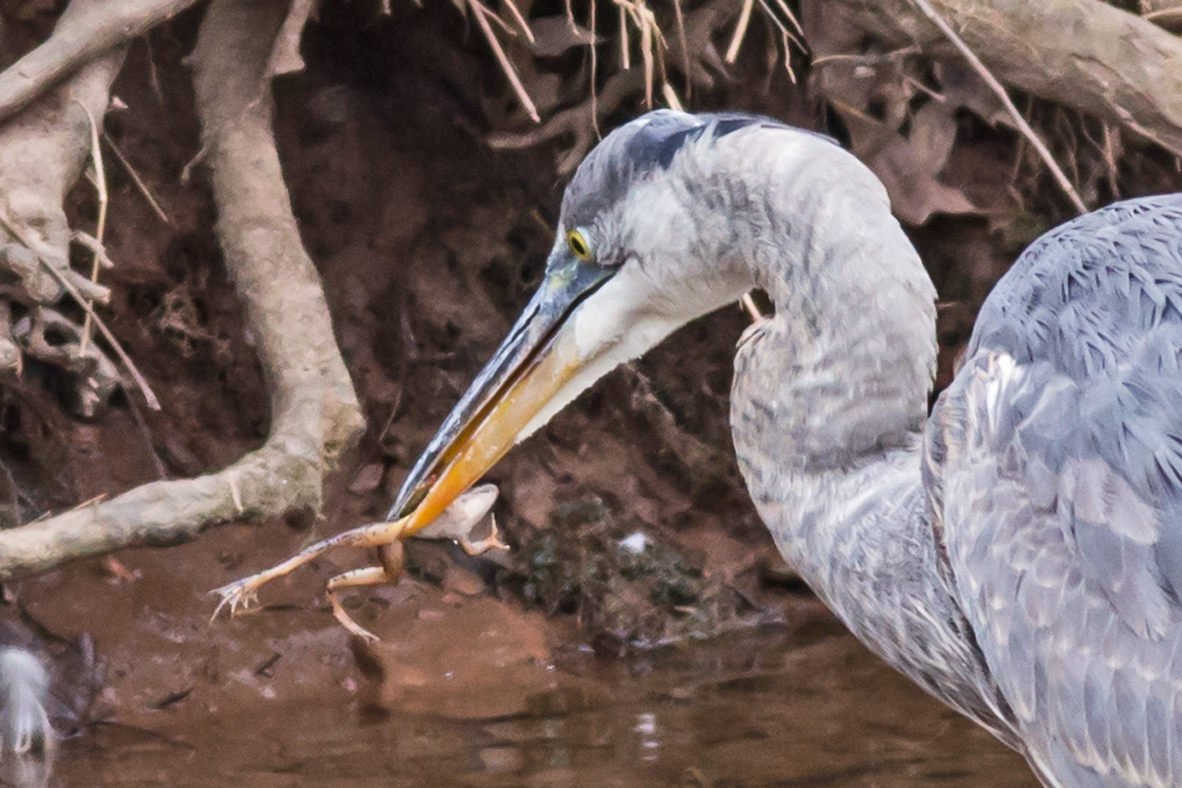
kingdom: Animalia
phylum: Chordata
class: Amphibia
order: Anura
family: Ranidae
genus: Lithobates
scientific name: Lithobates palustris
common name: Pickerel frog
